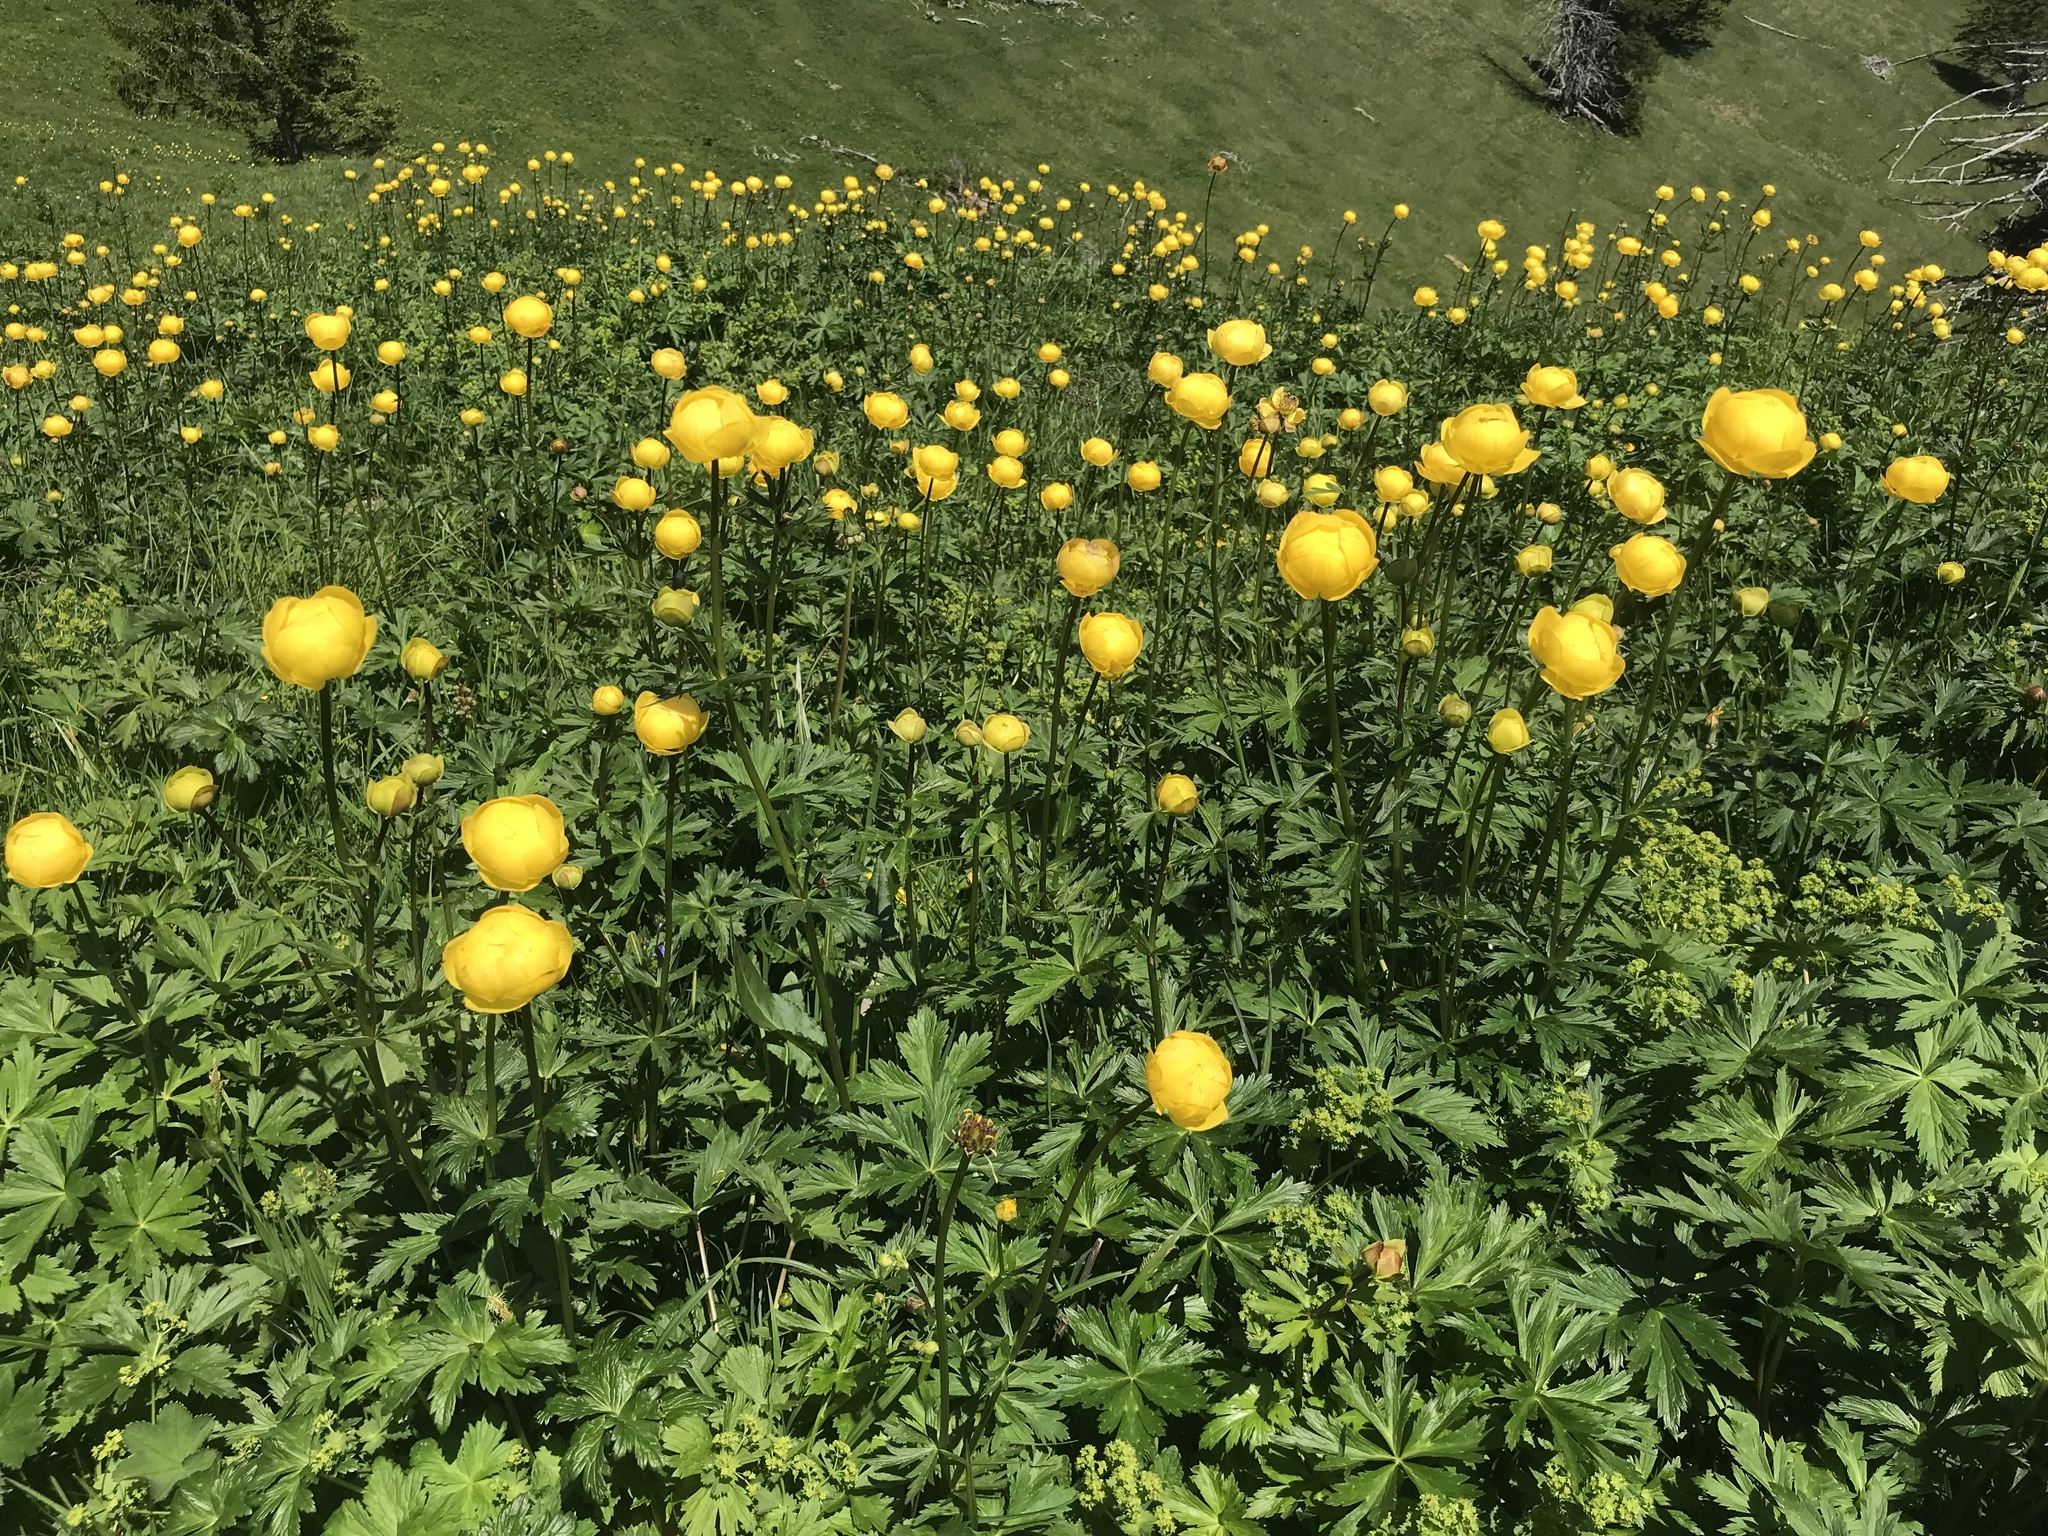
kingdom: Plantae
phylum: Tracheophyta
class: Magnoliopsida
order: Ranunculales
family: Ranunculaceae
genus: Trollius
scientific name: Trollius europaeus
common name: European globeflower
